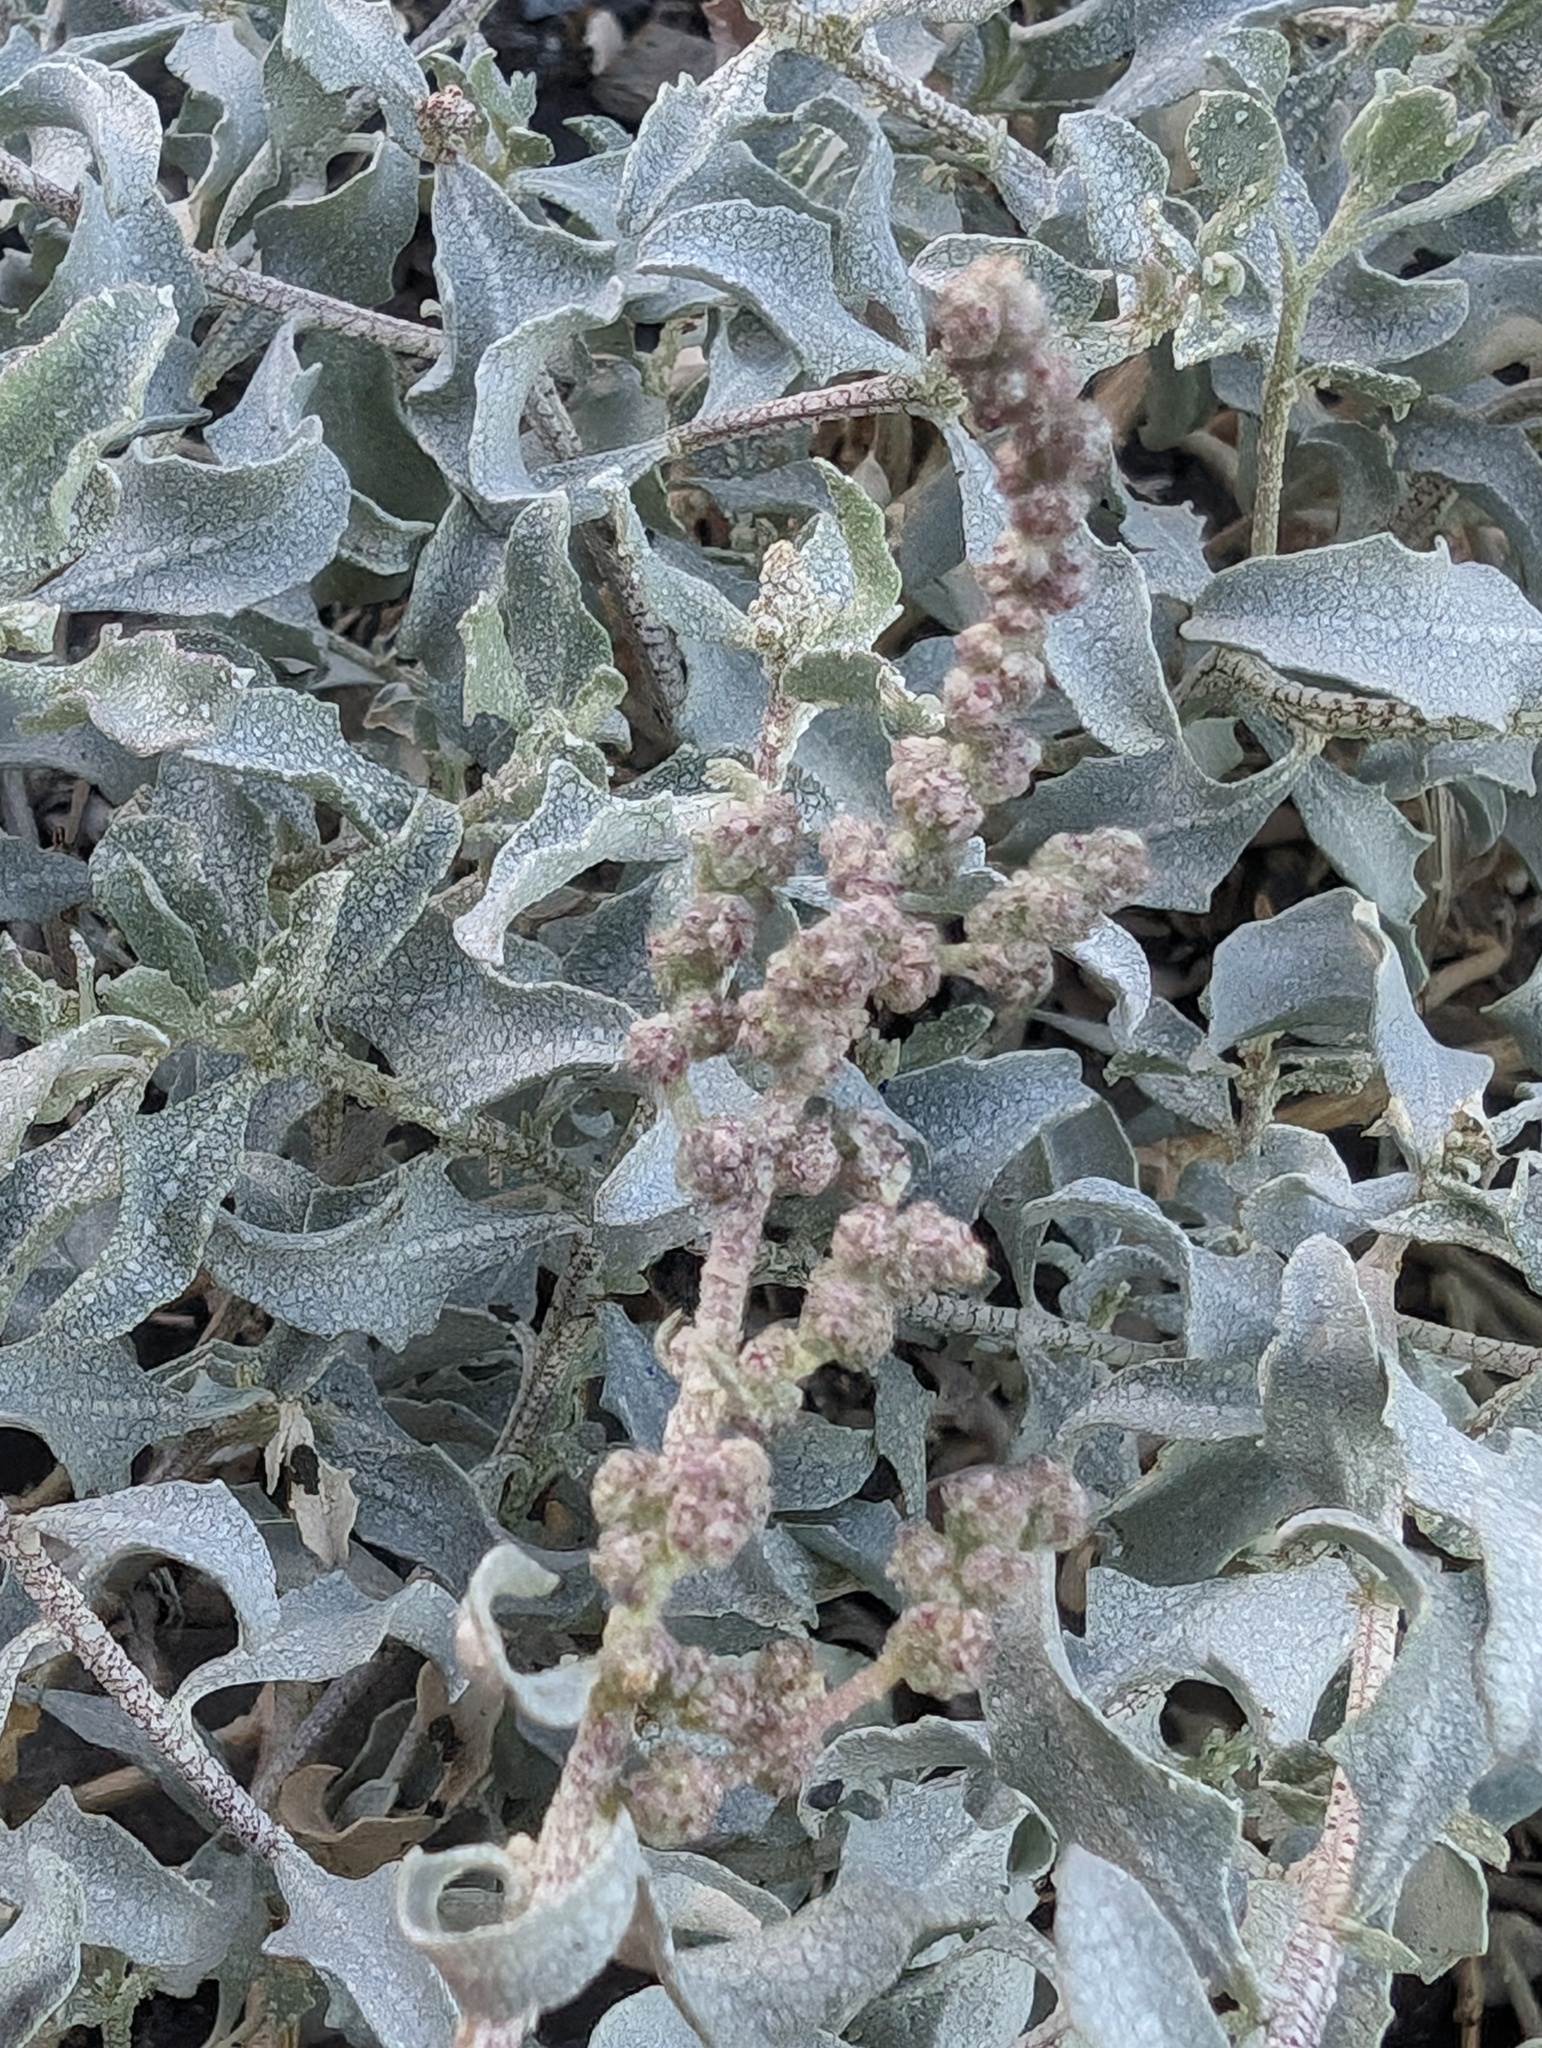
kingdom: Plantae
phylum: Tracheophyta
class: Magnoliopsida
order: Caryophyllales
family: Amaranthaceae
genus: Atriplex
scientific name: Atriplex barclayana
